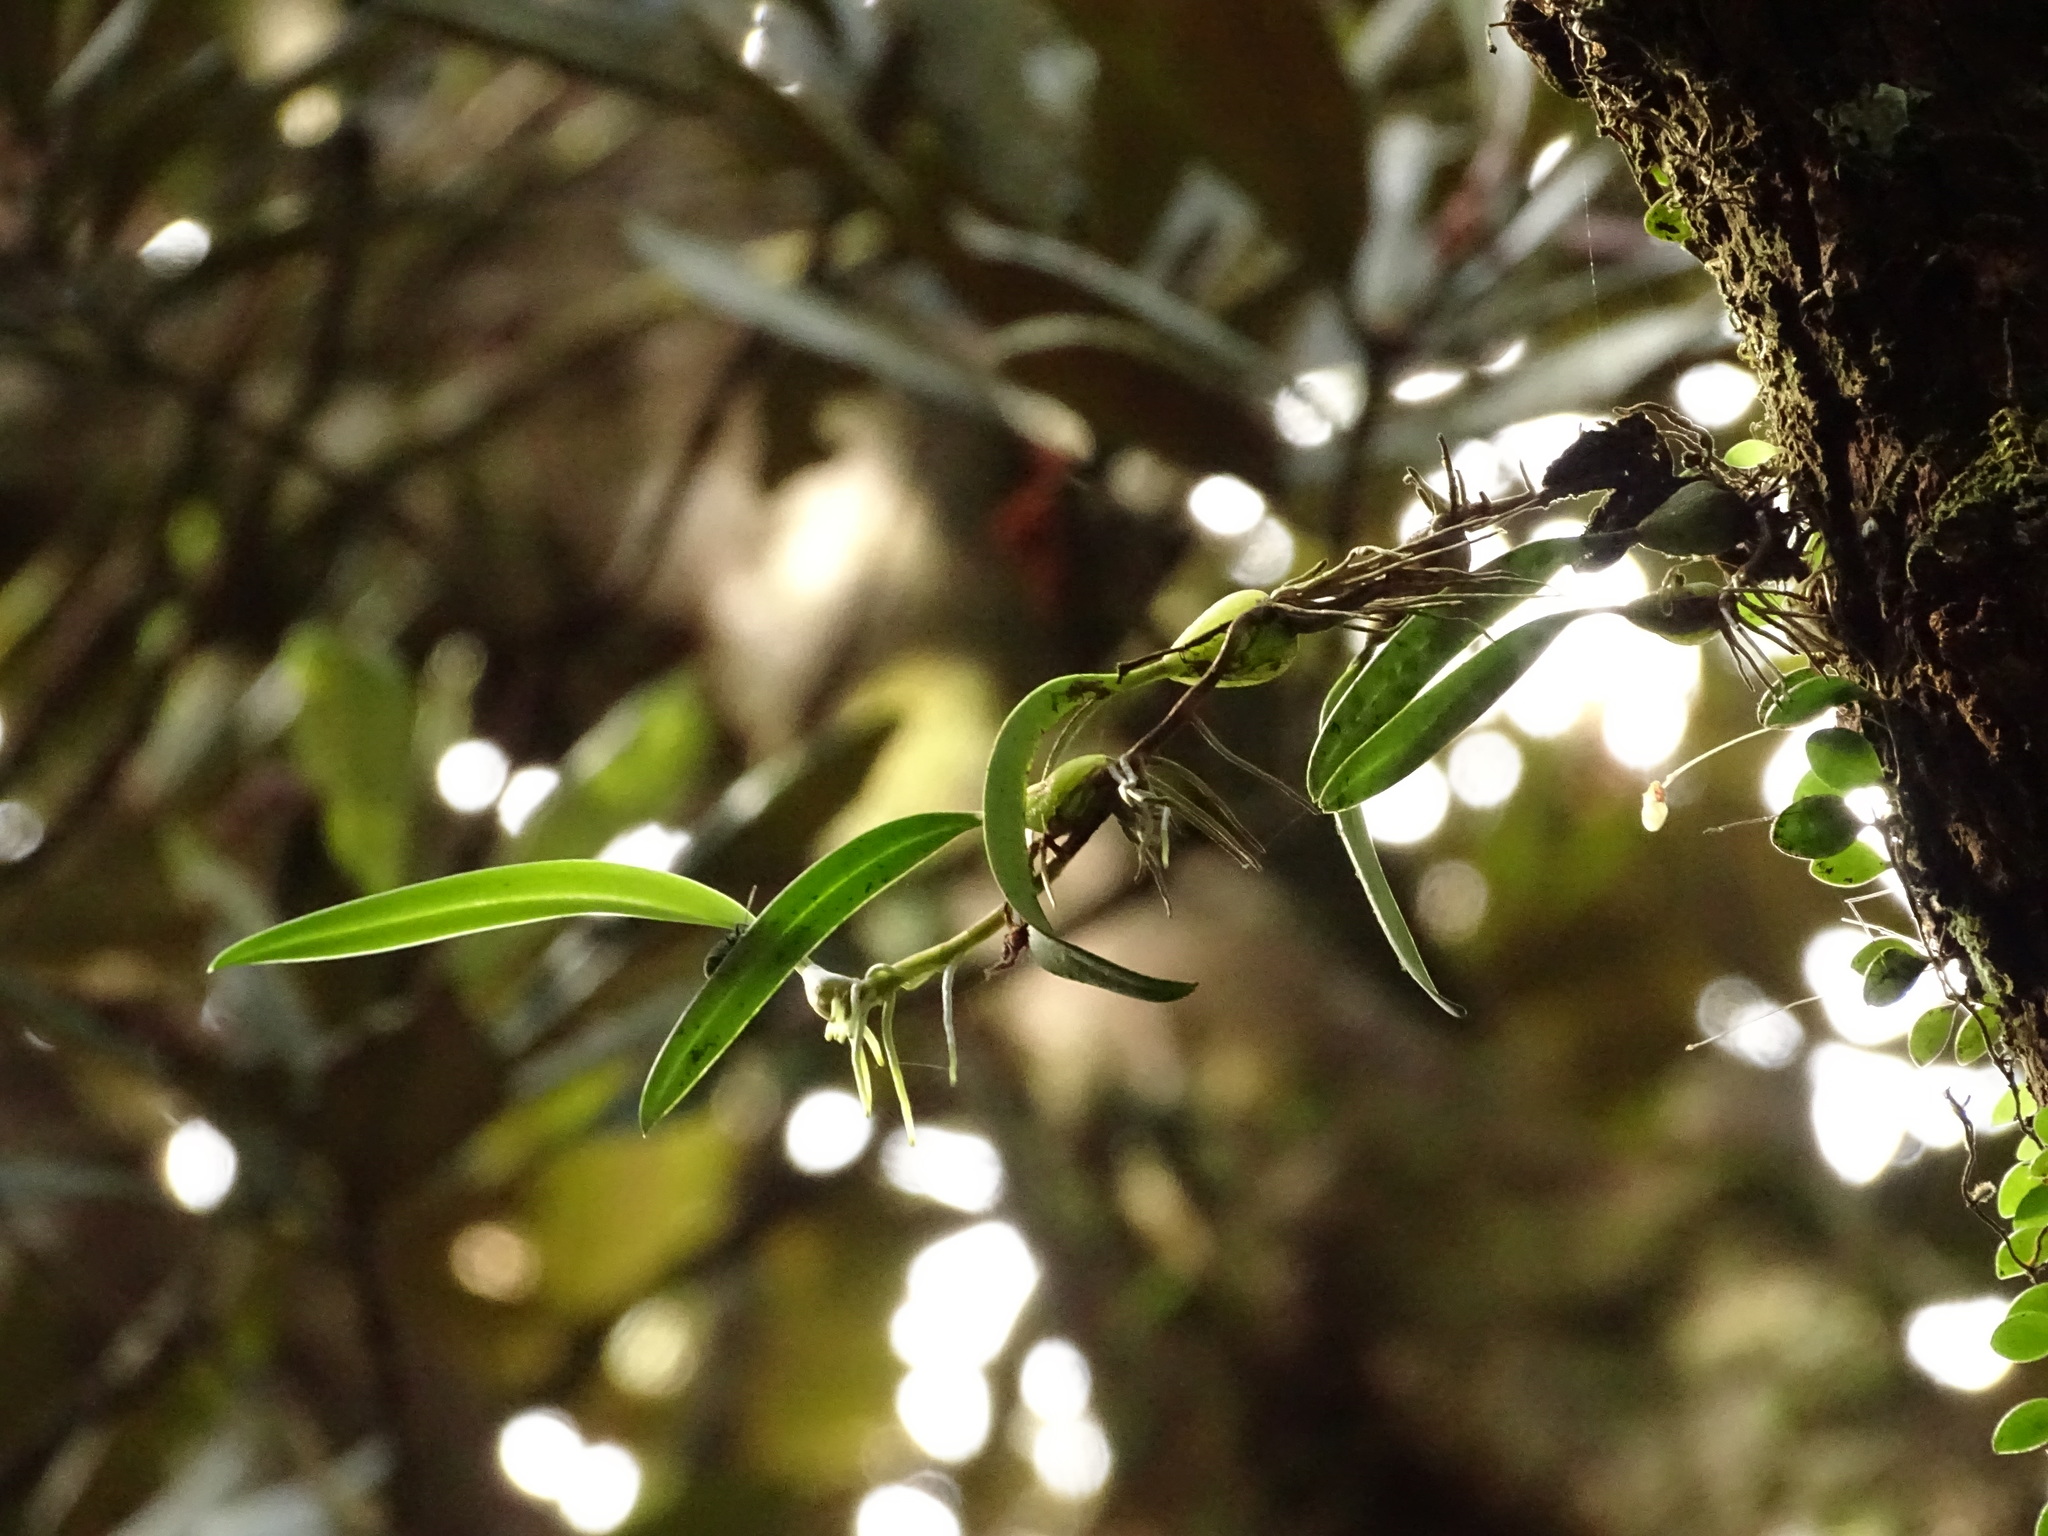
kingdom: Plantae
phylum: Tracheophyta
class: Liliopsida
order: Asparagales
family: Orchidaceae
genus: Bulbophyllum
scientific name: Bulbophyllum bifurcatoflorens
